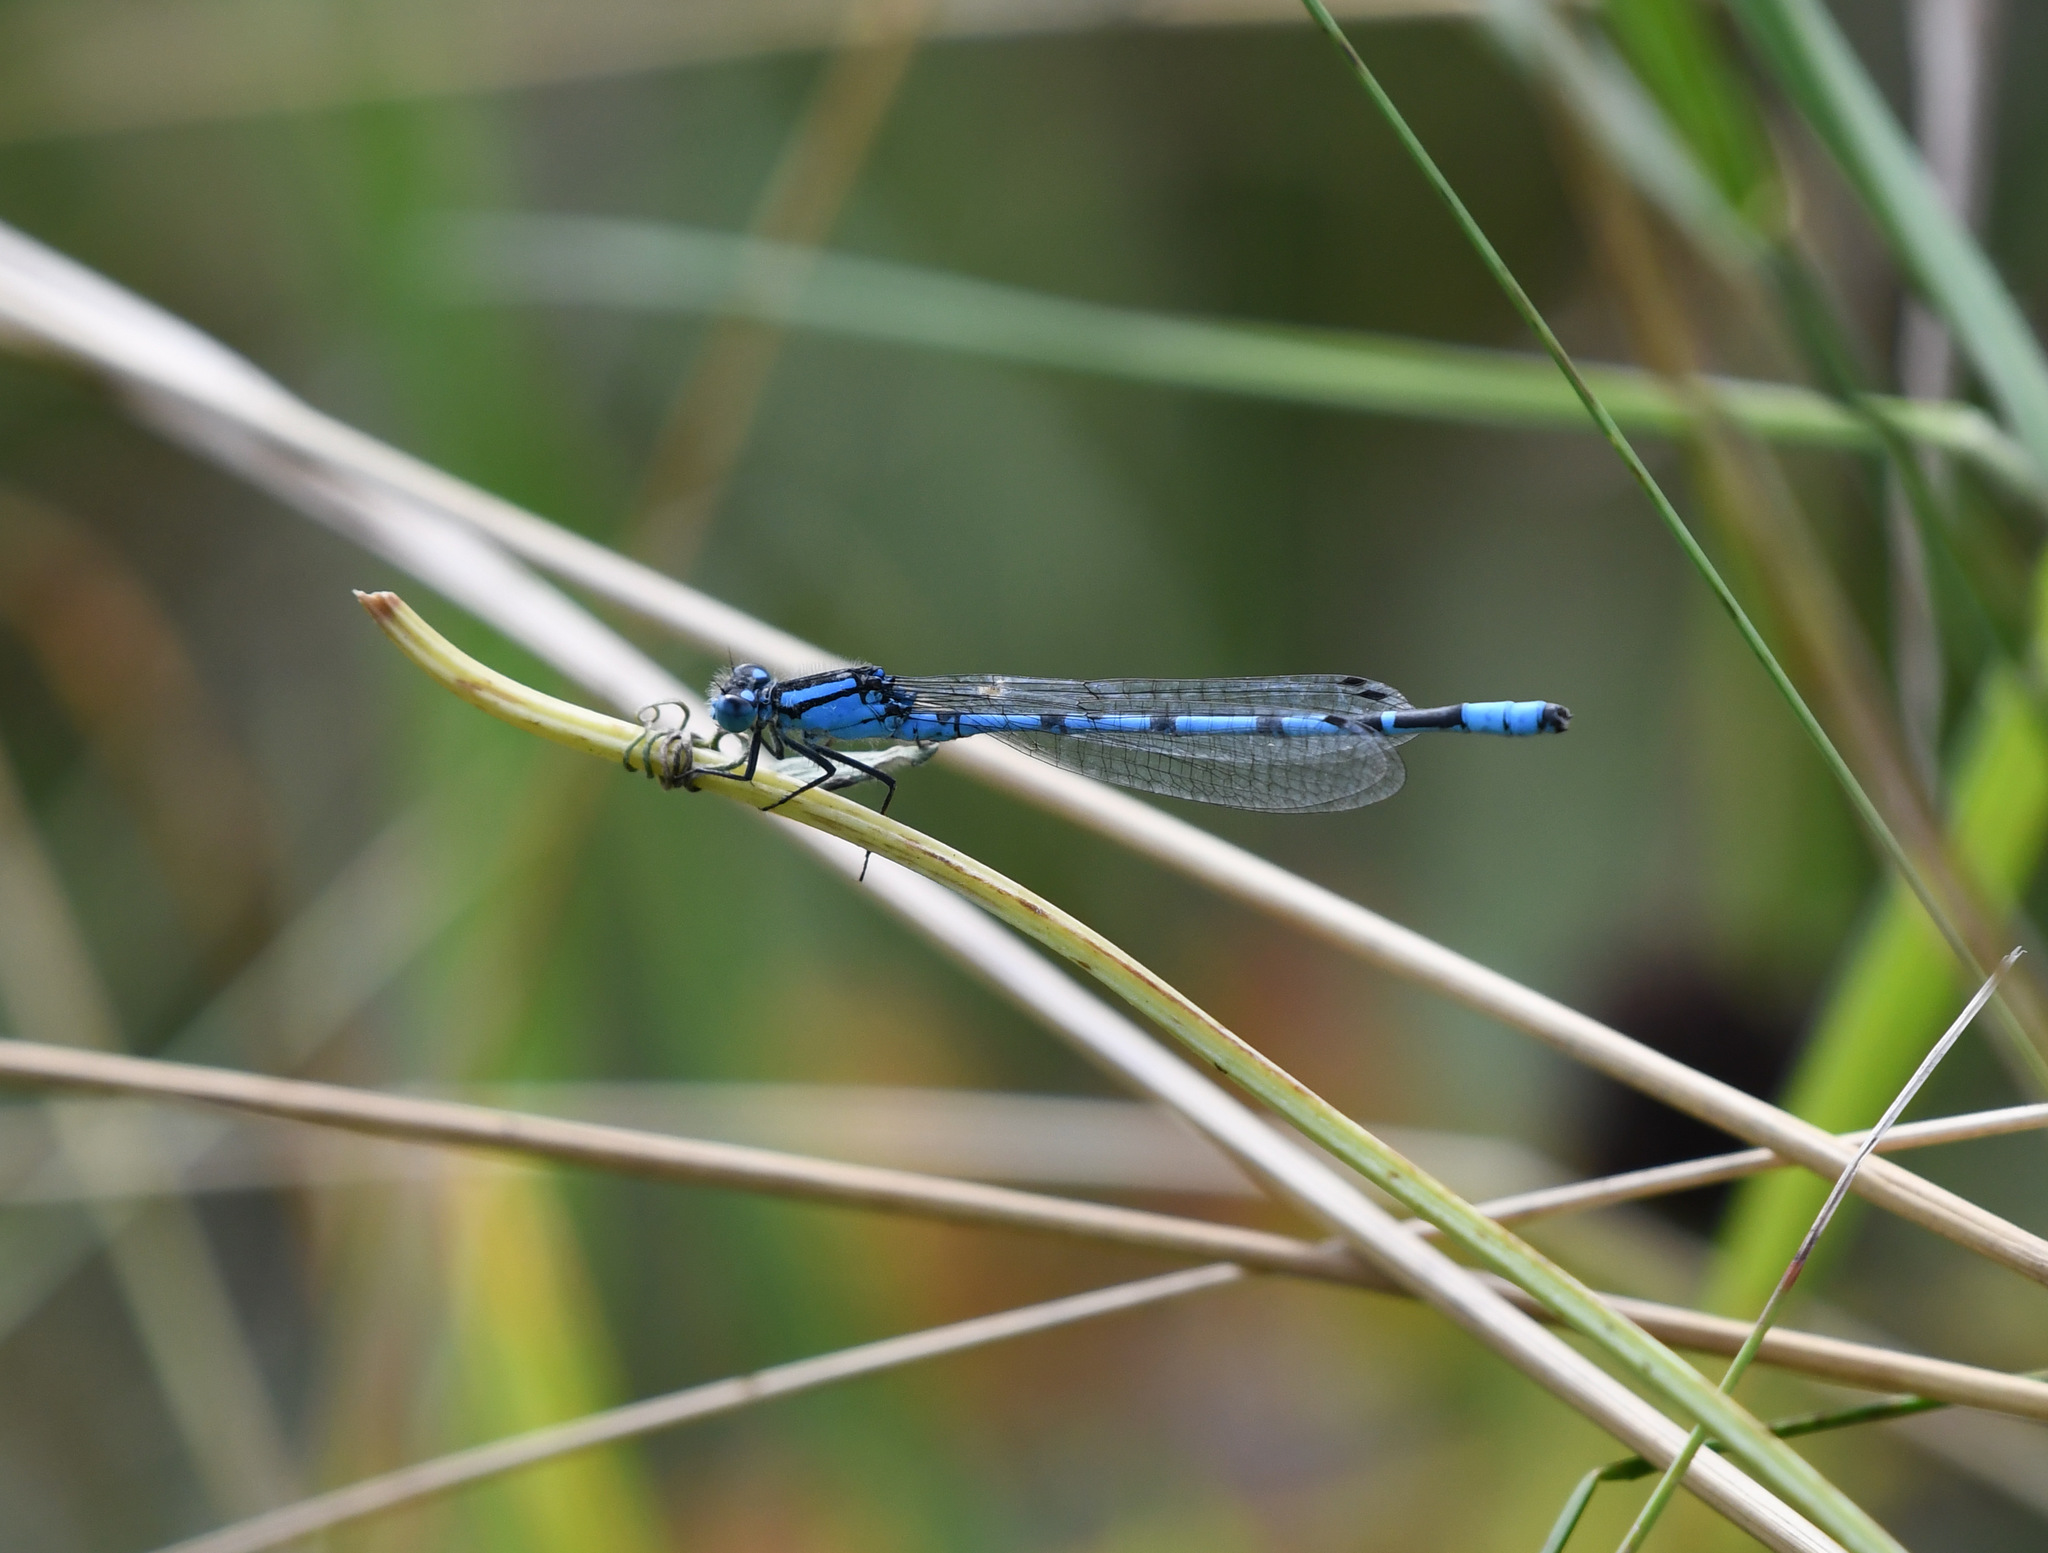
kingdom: Animalia
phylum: Arthropoda
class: Insecta
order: Odonata
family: Coenagrionidae
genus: Enallagma
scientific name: Enallagma cyathigerum
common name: Common blue damselfly
